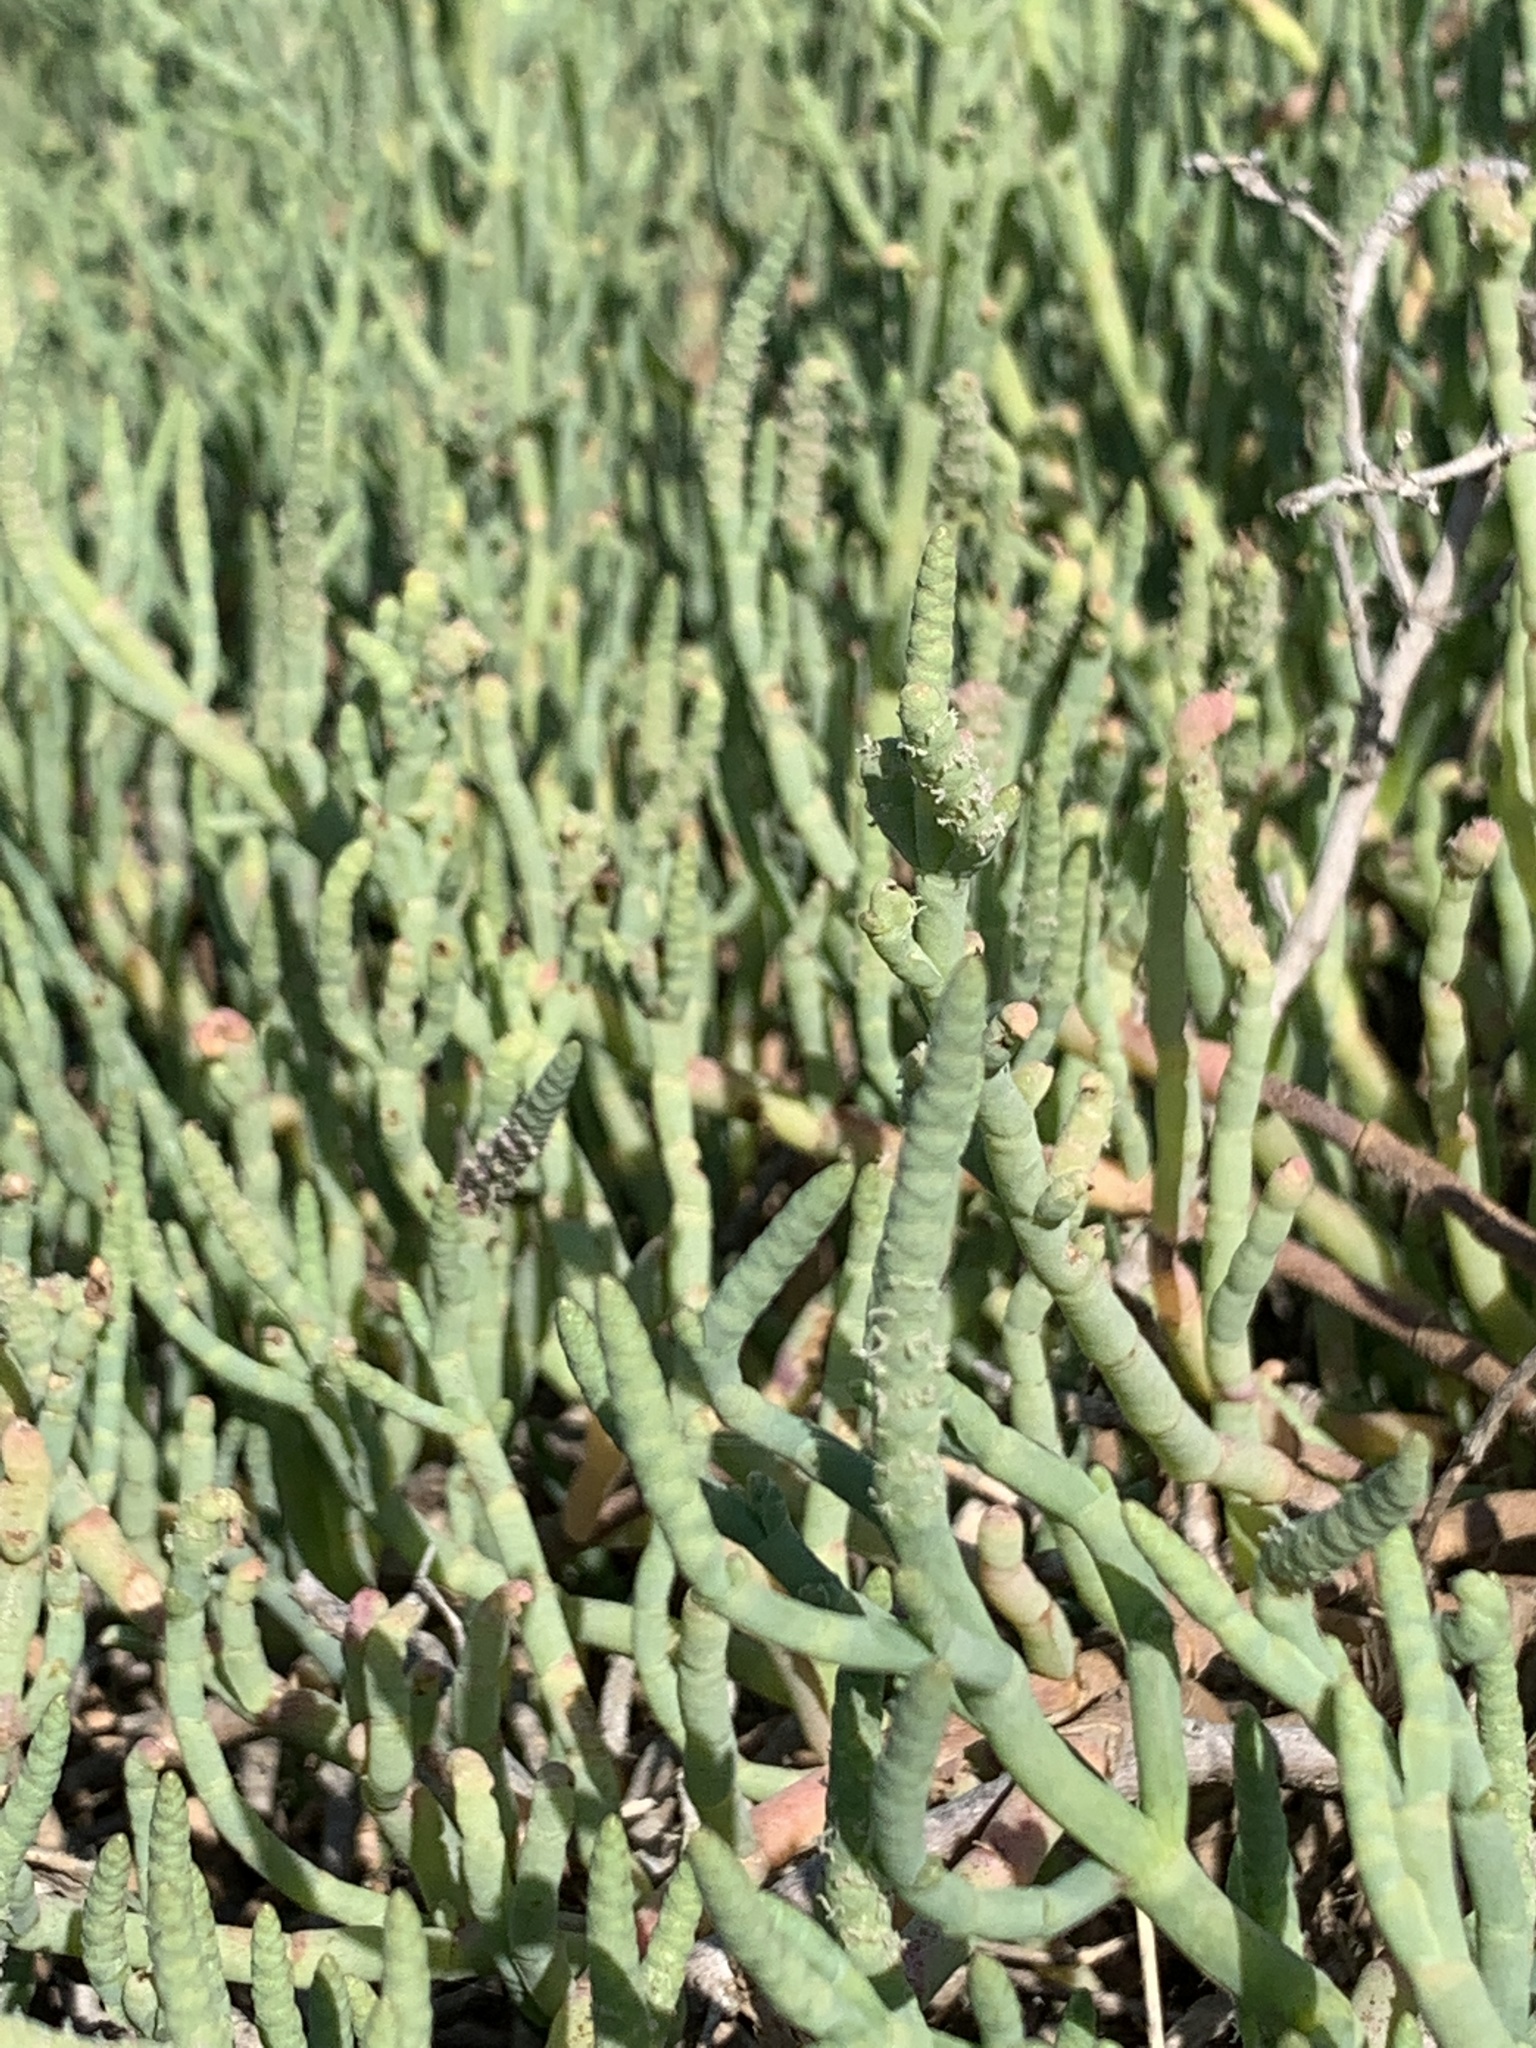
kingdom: Plantae
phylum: Tracheophyta
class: Magnoliopsida
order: Caryophyllales
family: Amaranthaceae
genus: Salicornia
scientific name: Salicornia pacifica
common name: Pacific glasswort
